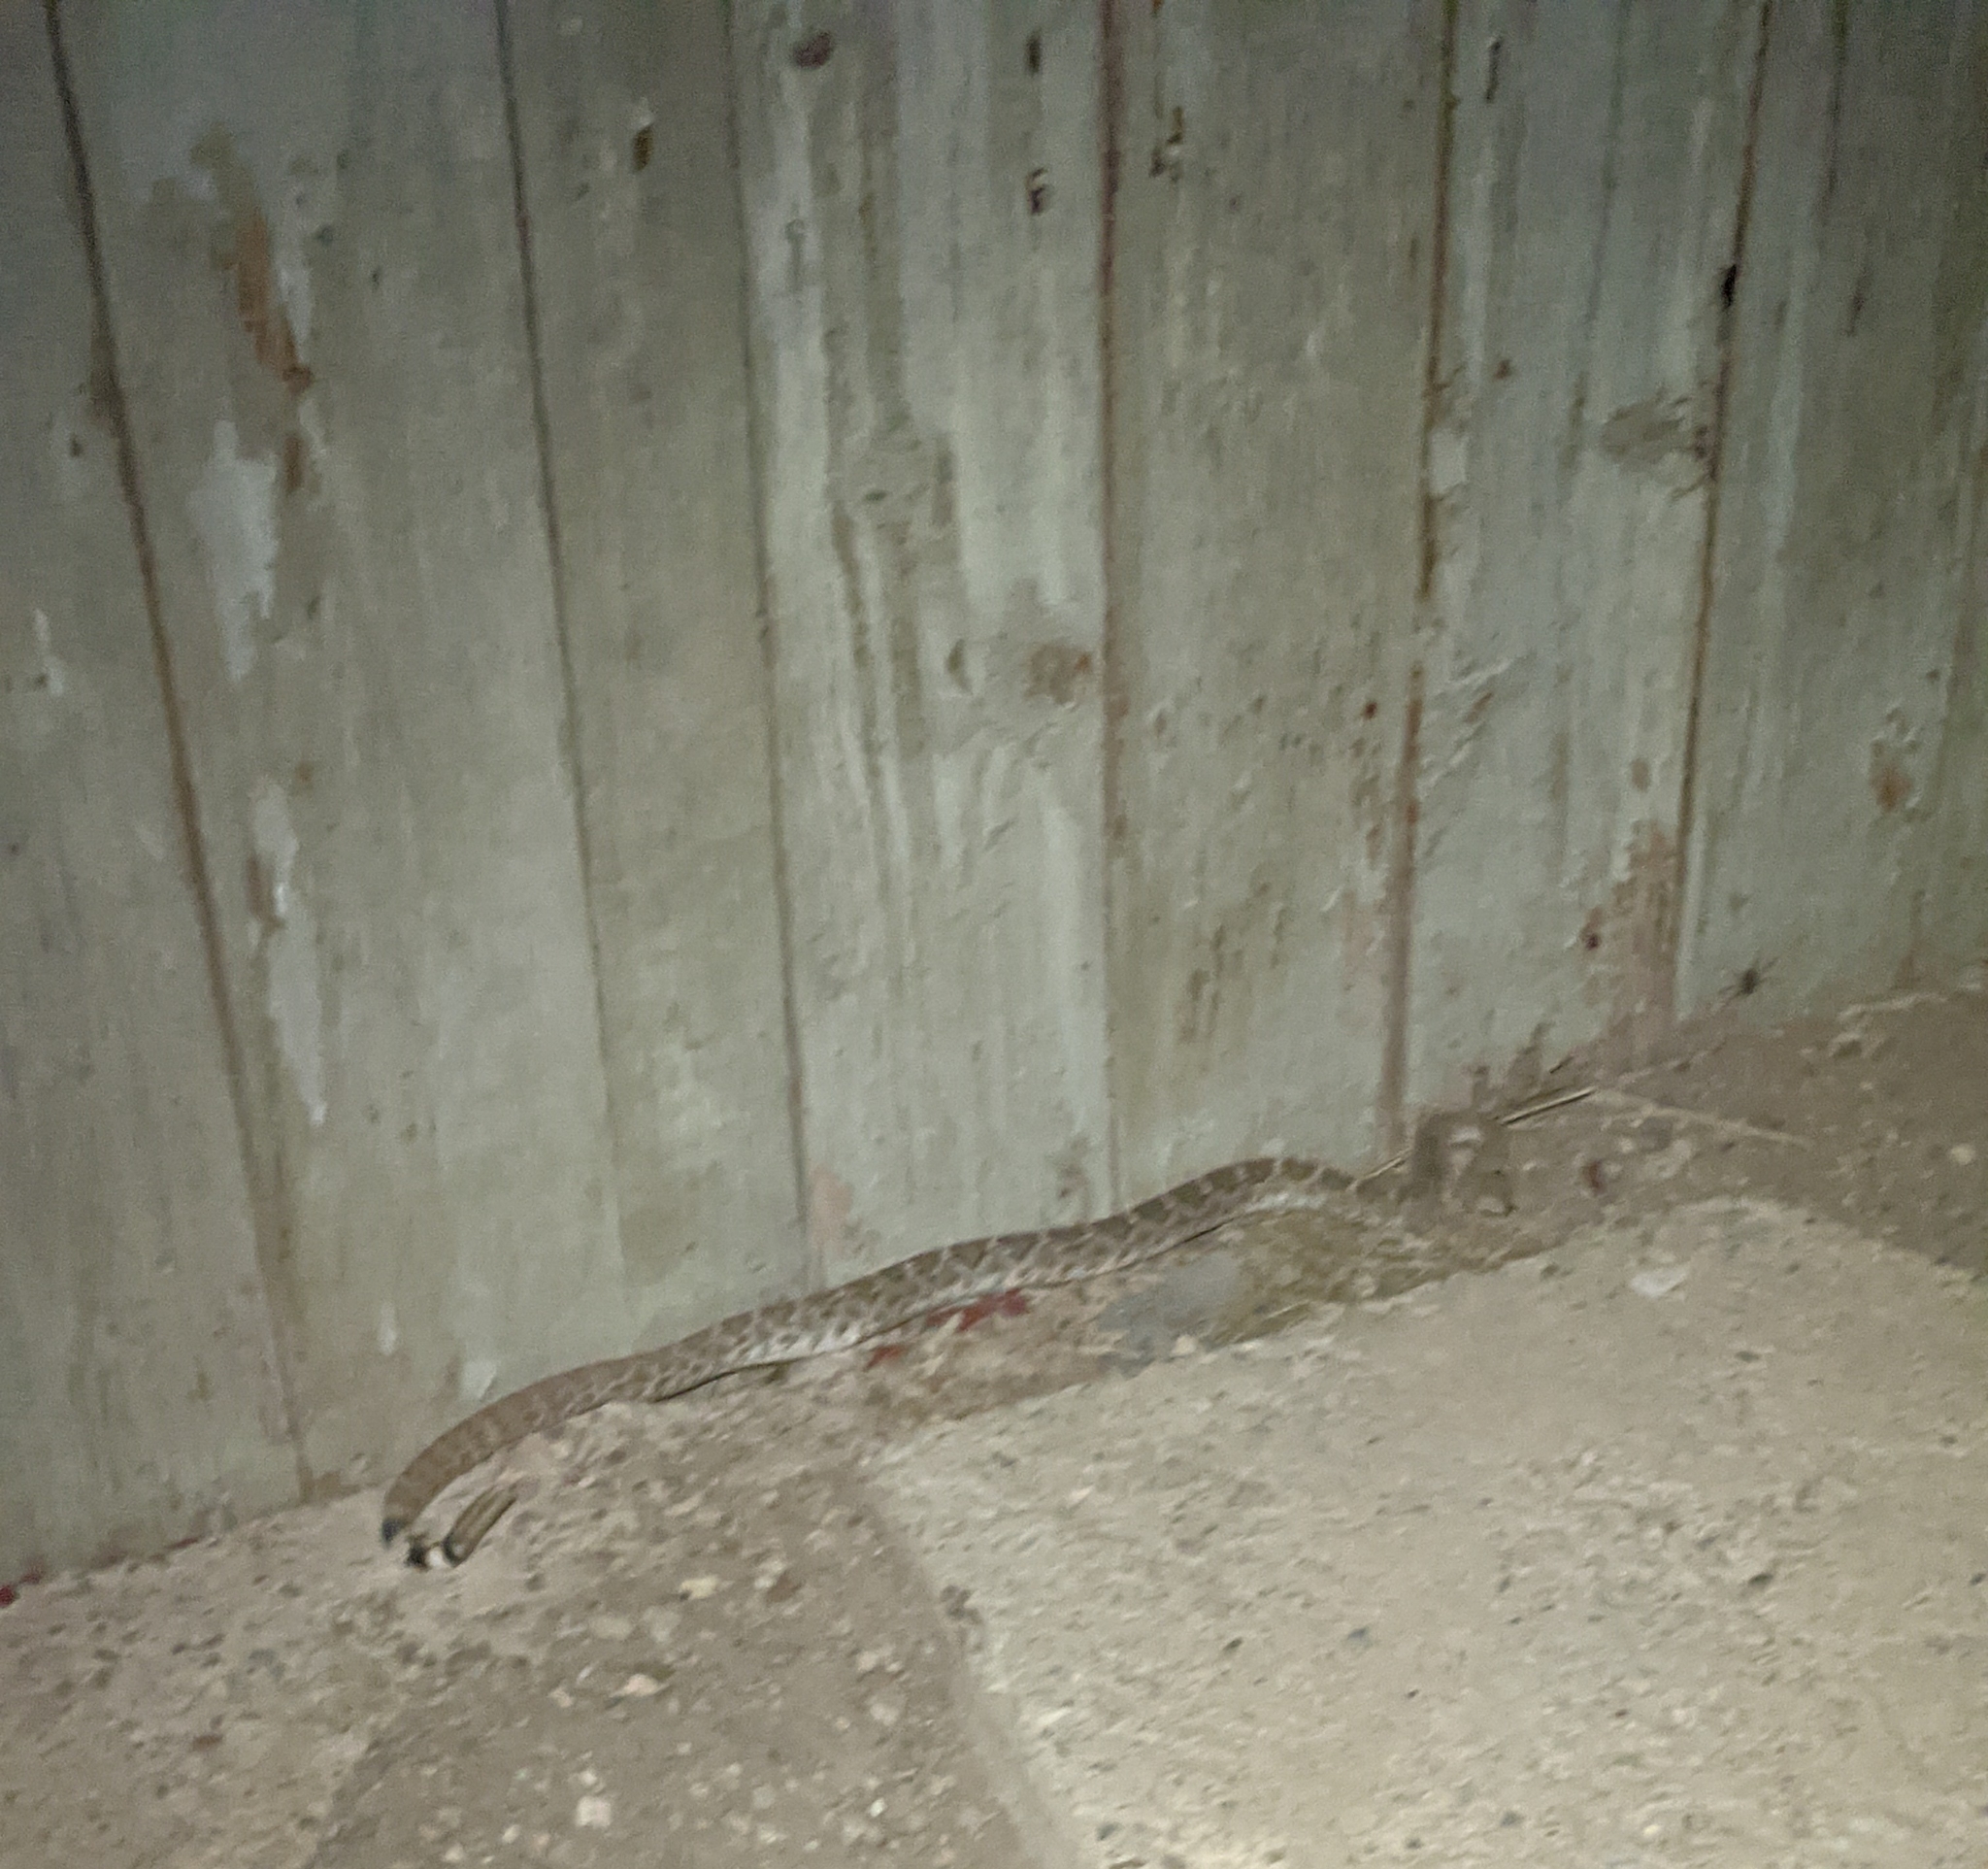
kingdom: Animalia
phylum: Chordata
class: Squamata
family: Viperidae
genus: Crotalus
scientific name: Crotalus atrox
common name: Western diamond-backed rattlesnake
